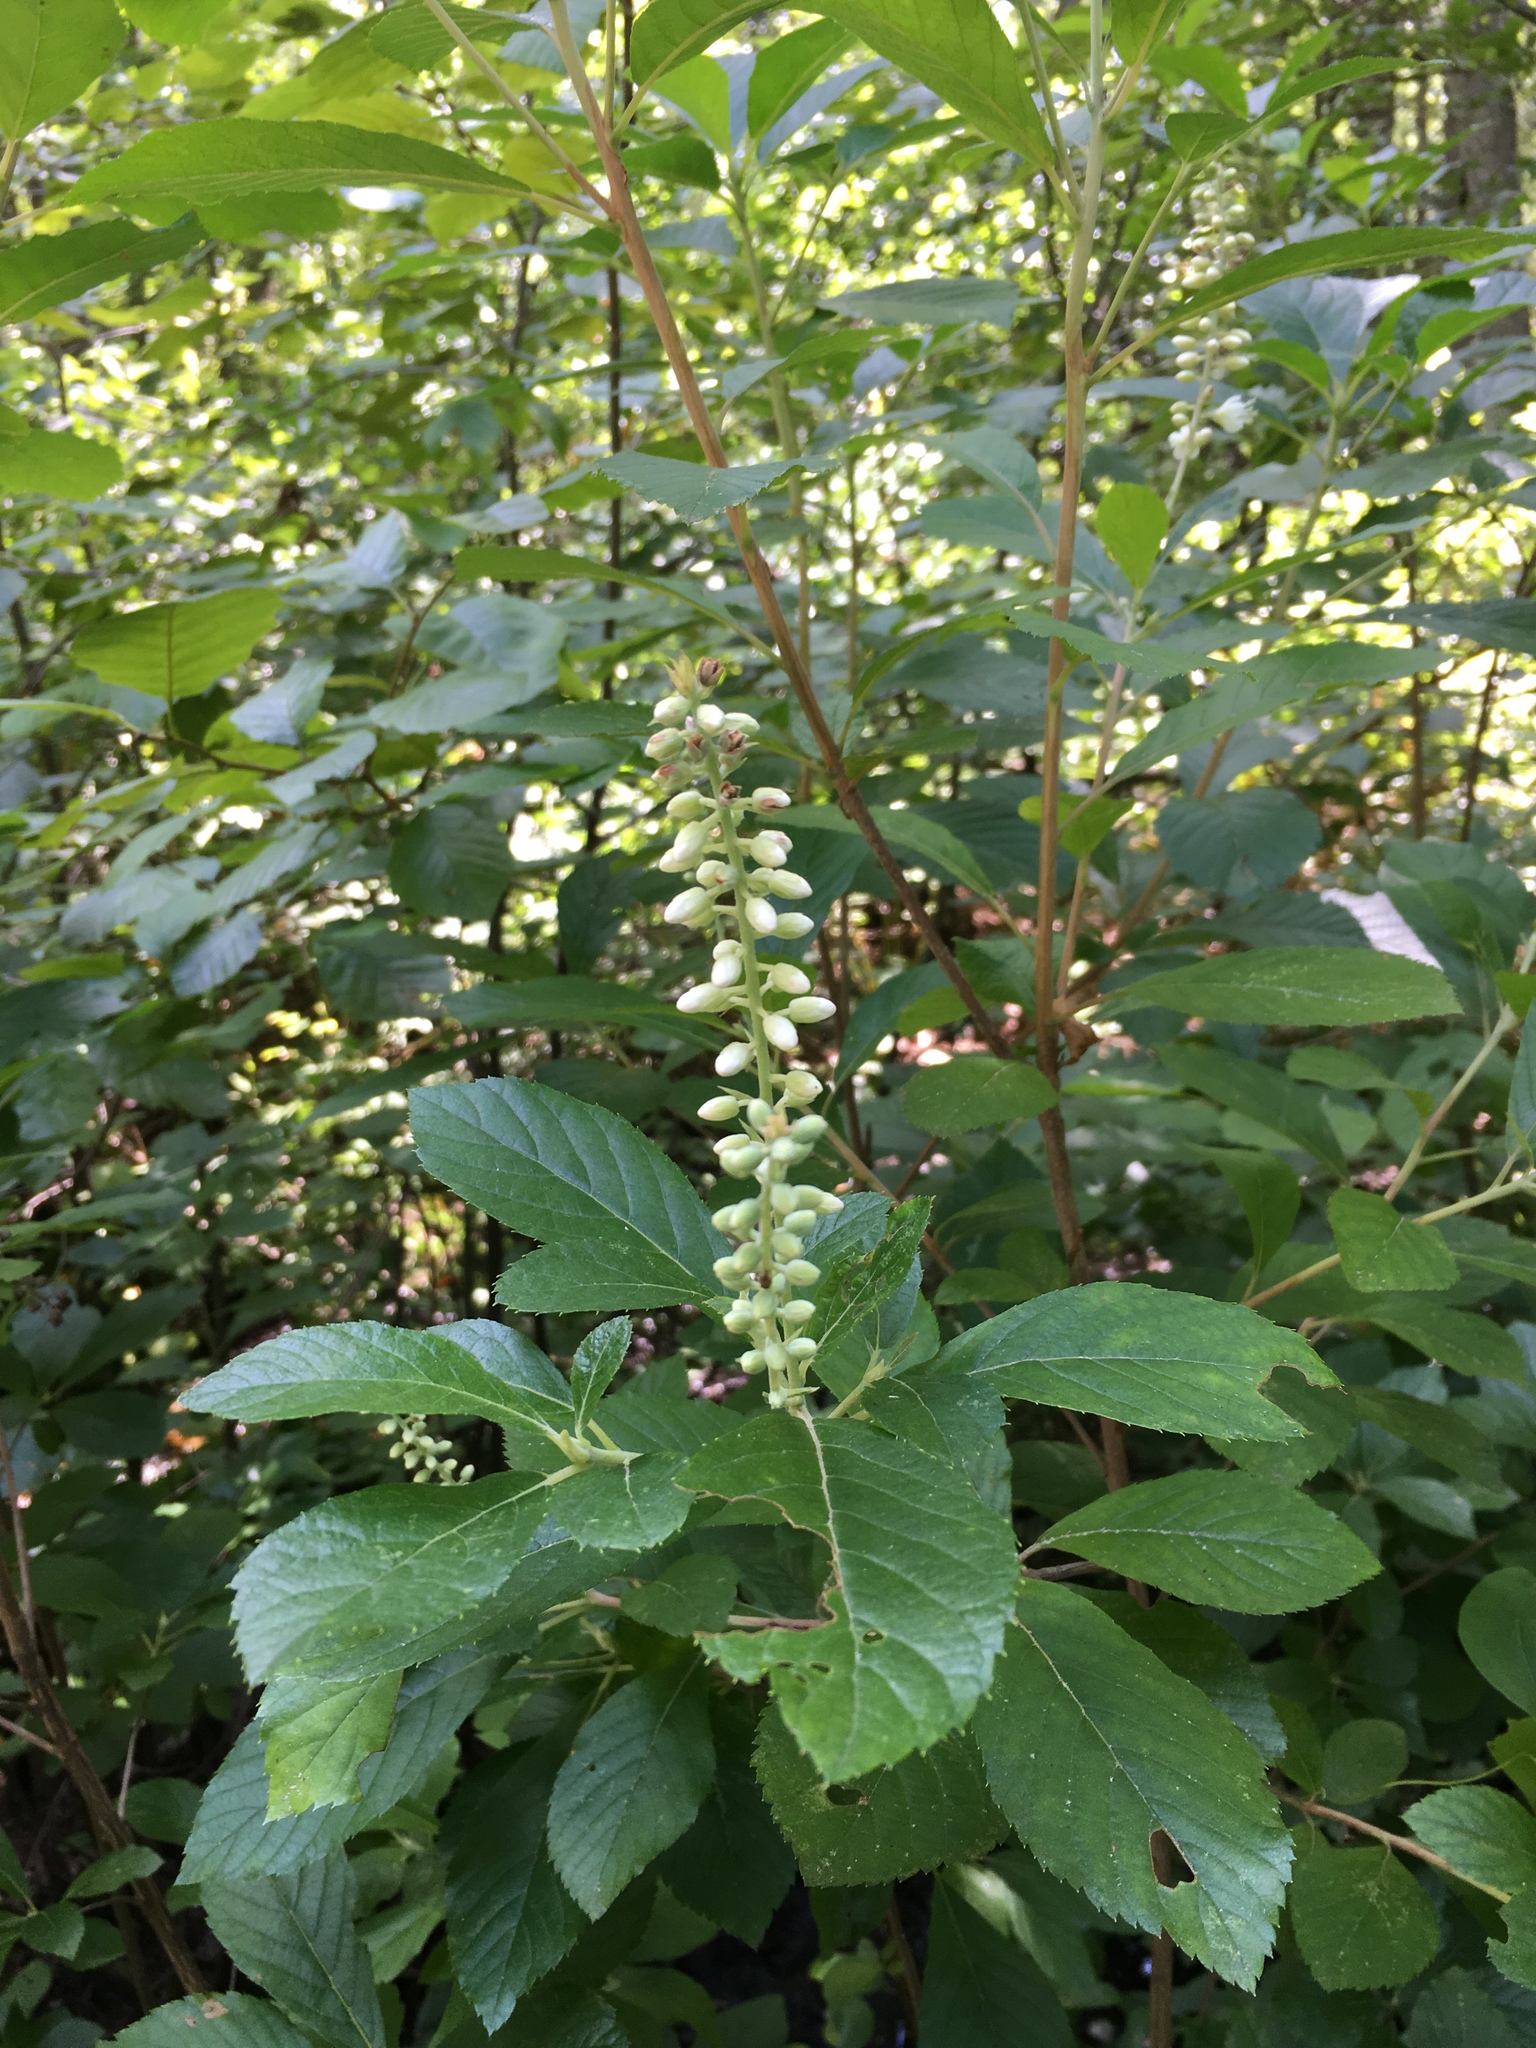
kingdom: Plantae
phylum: Tracheophyta
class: Magnoliopsida
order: Ericales
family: Clethraceae
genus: Clethra
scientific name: Clethra alnifolia
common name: Sweet pepperbush
